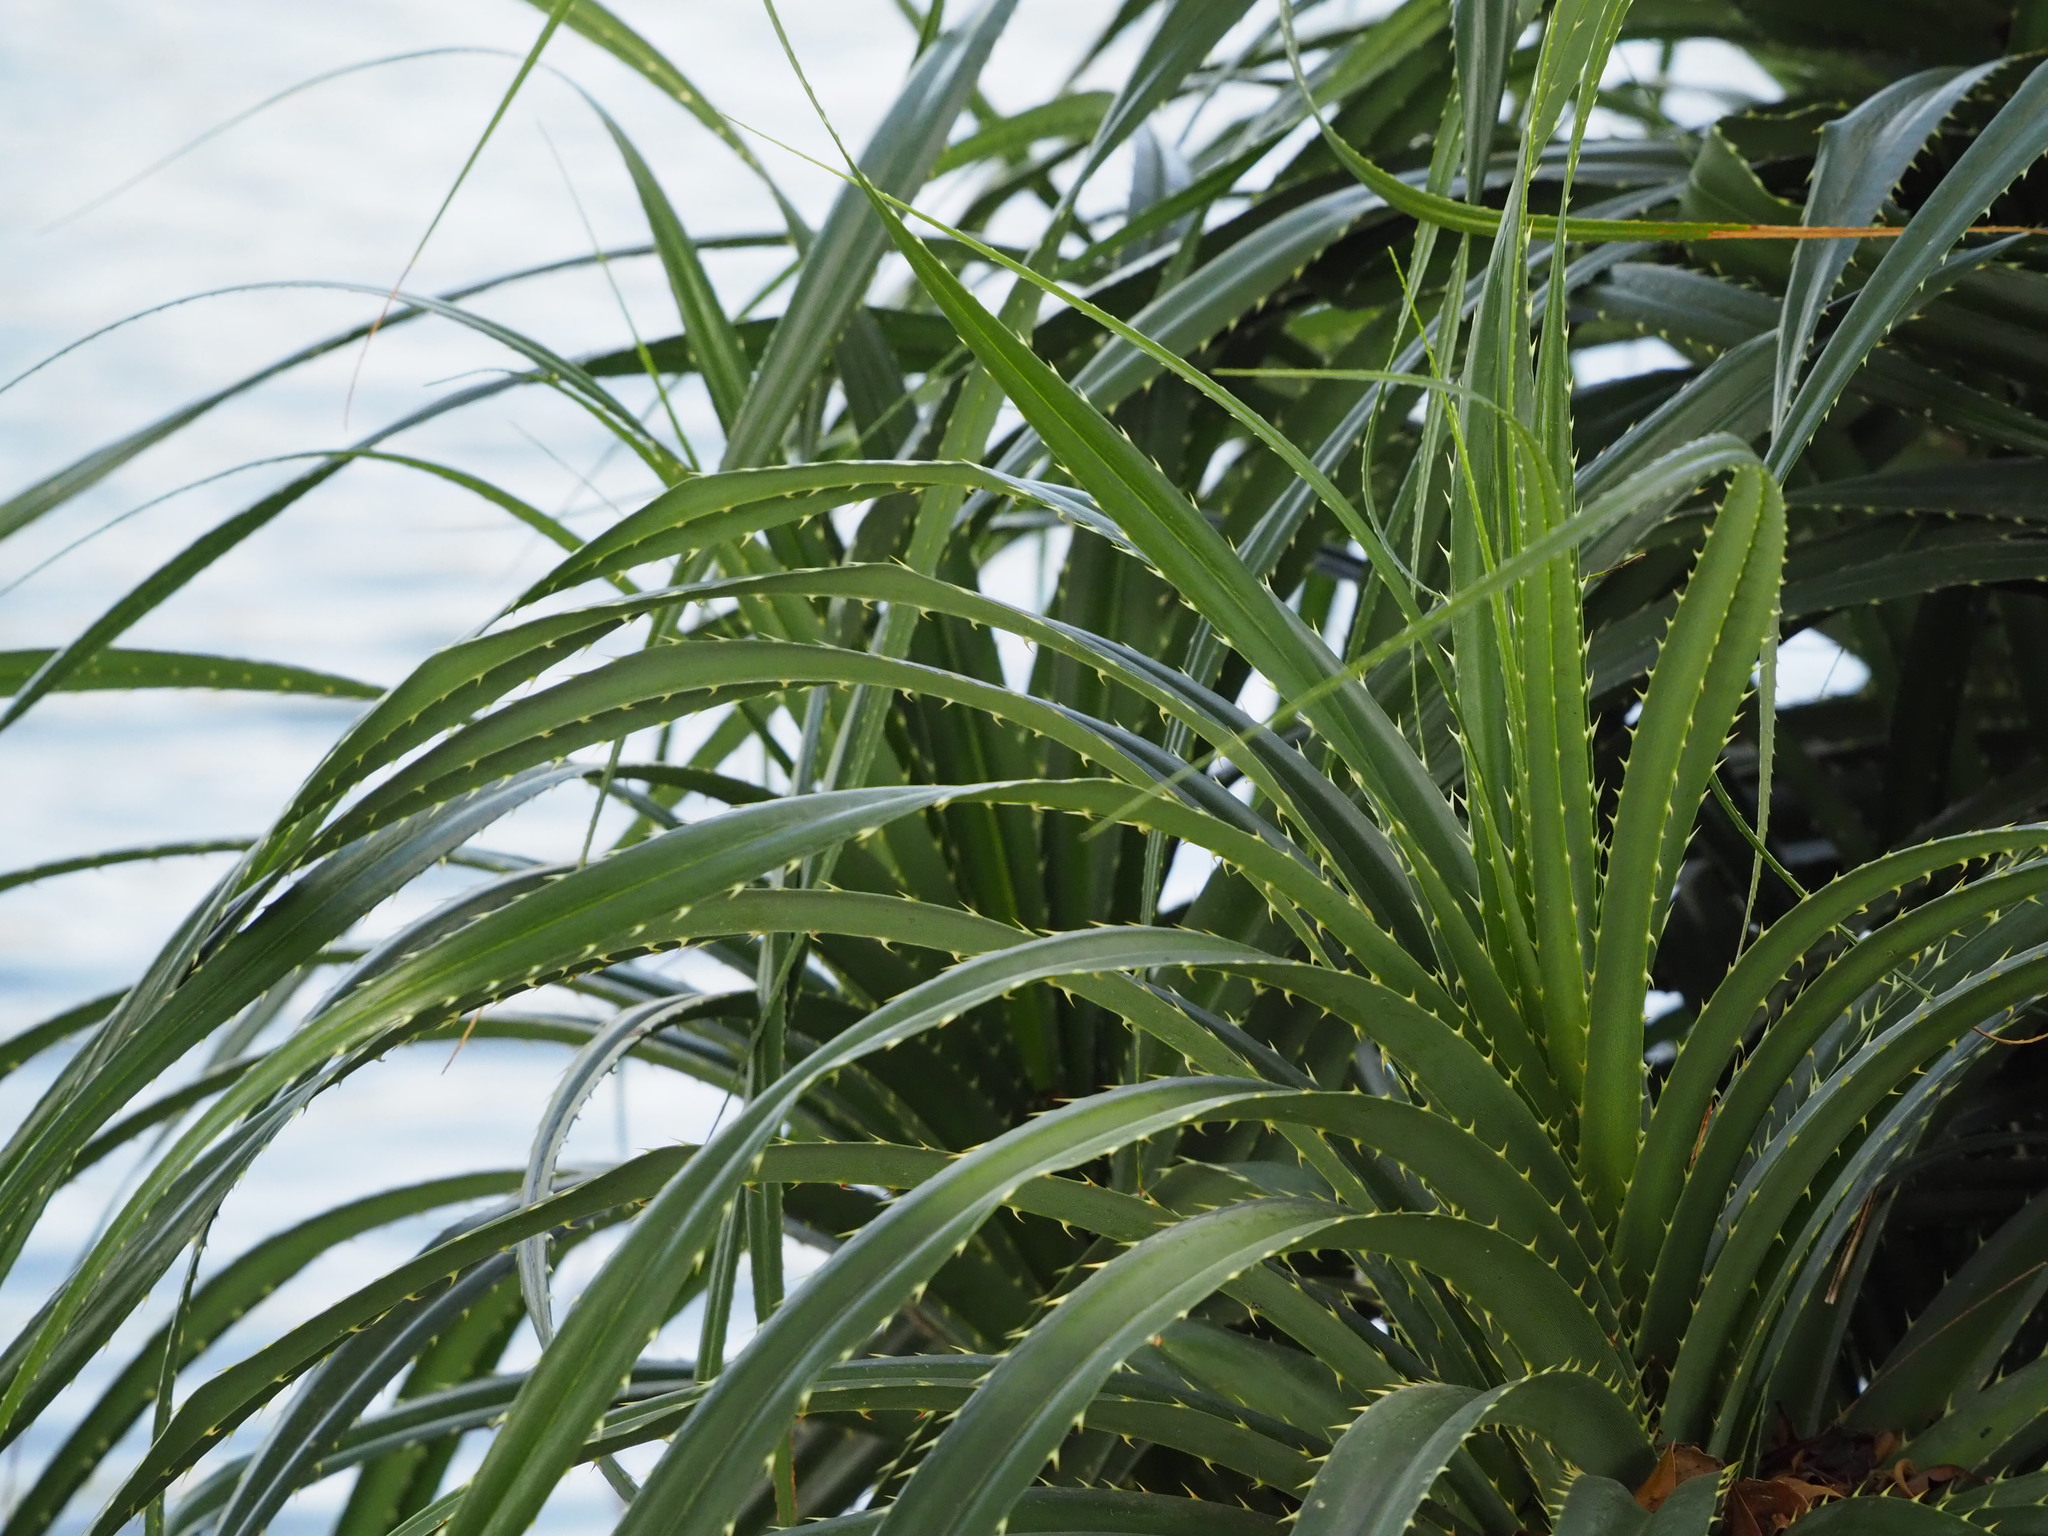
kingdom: Plantae
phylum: Tracheophyta
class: Liliopsida
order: Pandanales
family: Pandanaceae
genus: Pandanus
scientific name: Pandanus odorifer
